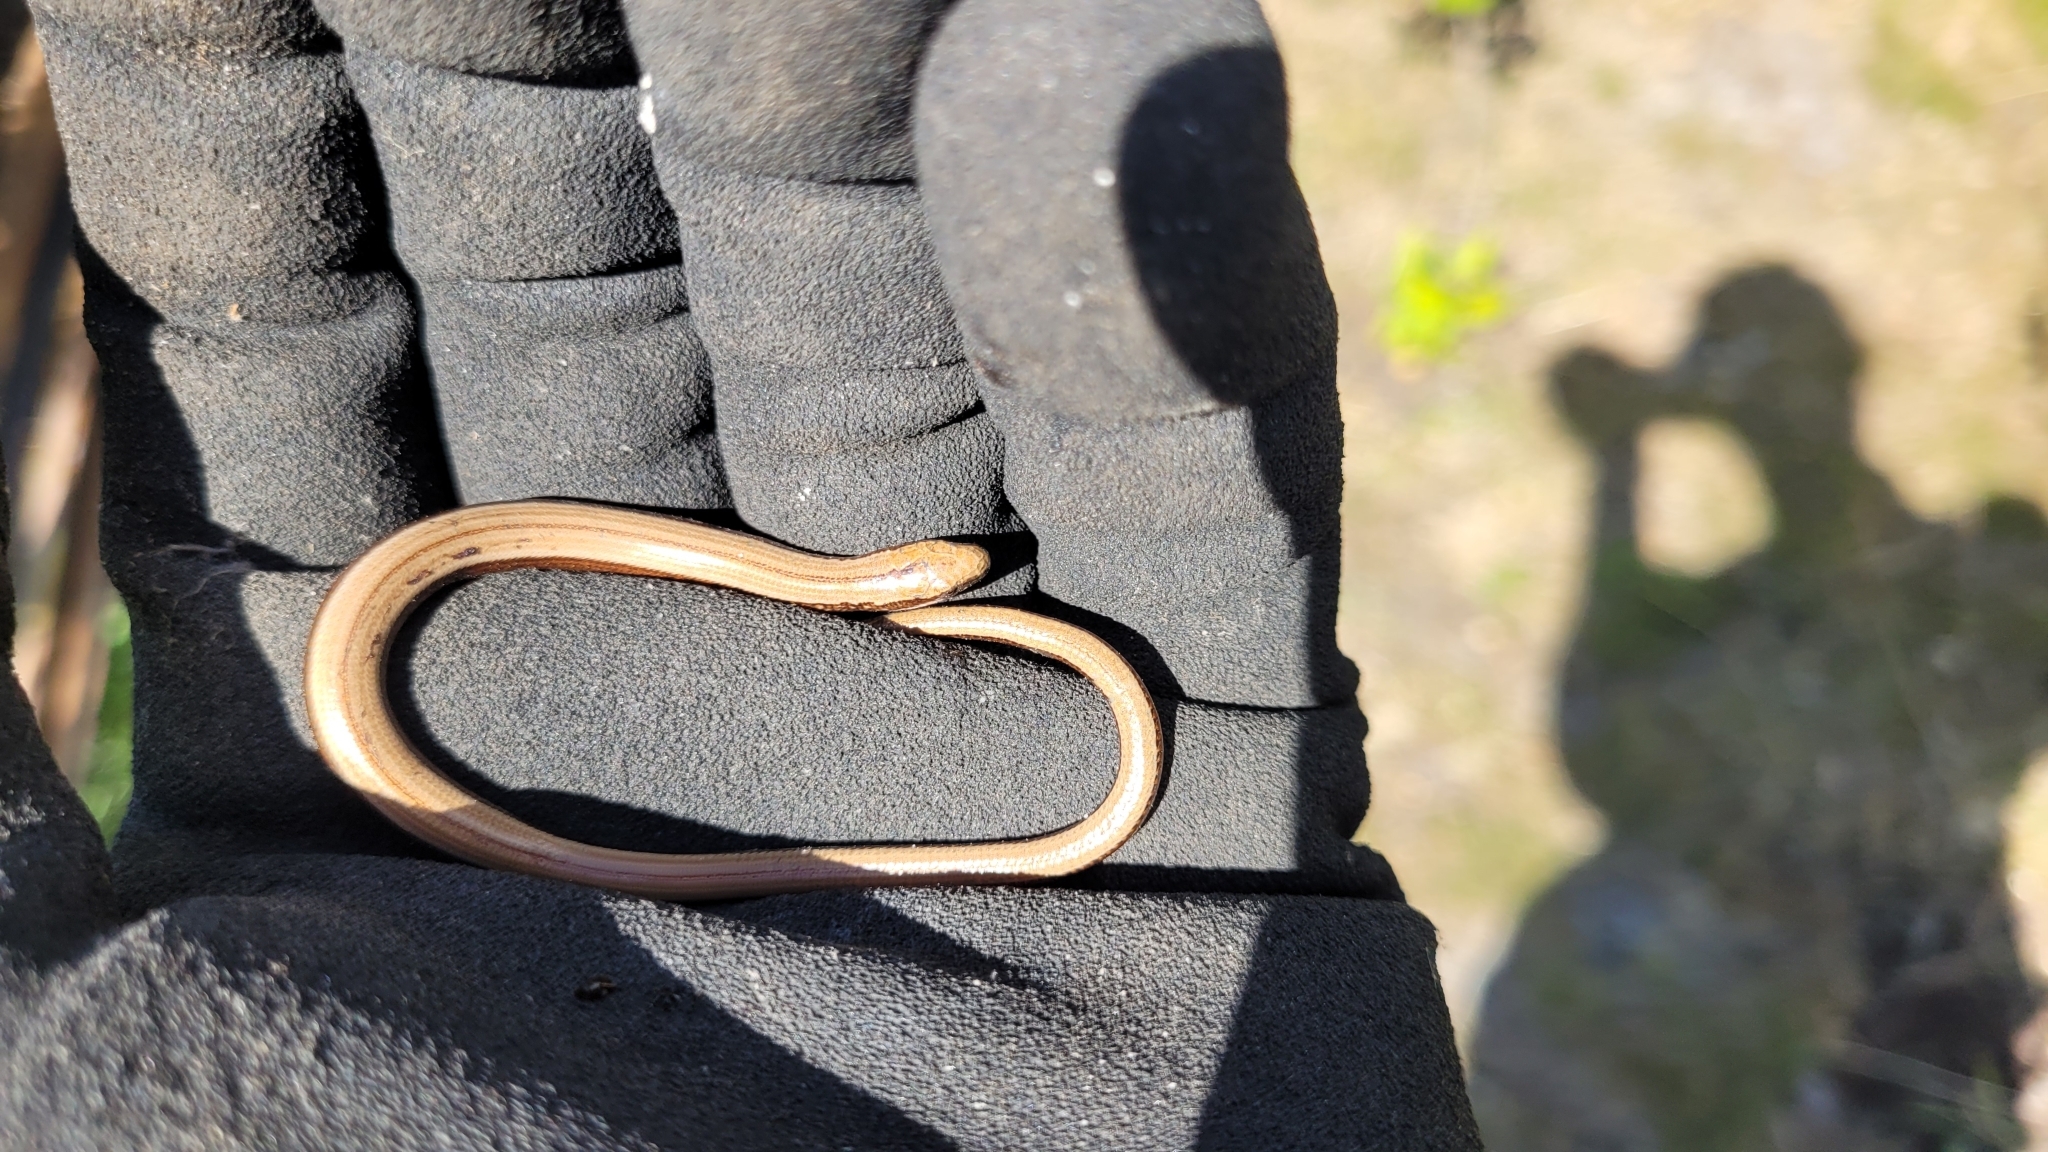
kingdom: Animalia
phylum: Chordata
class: Squamata
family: Anguidae
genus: Anguis
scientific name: Anguis fragilis
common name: Slow worm
